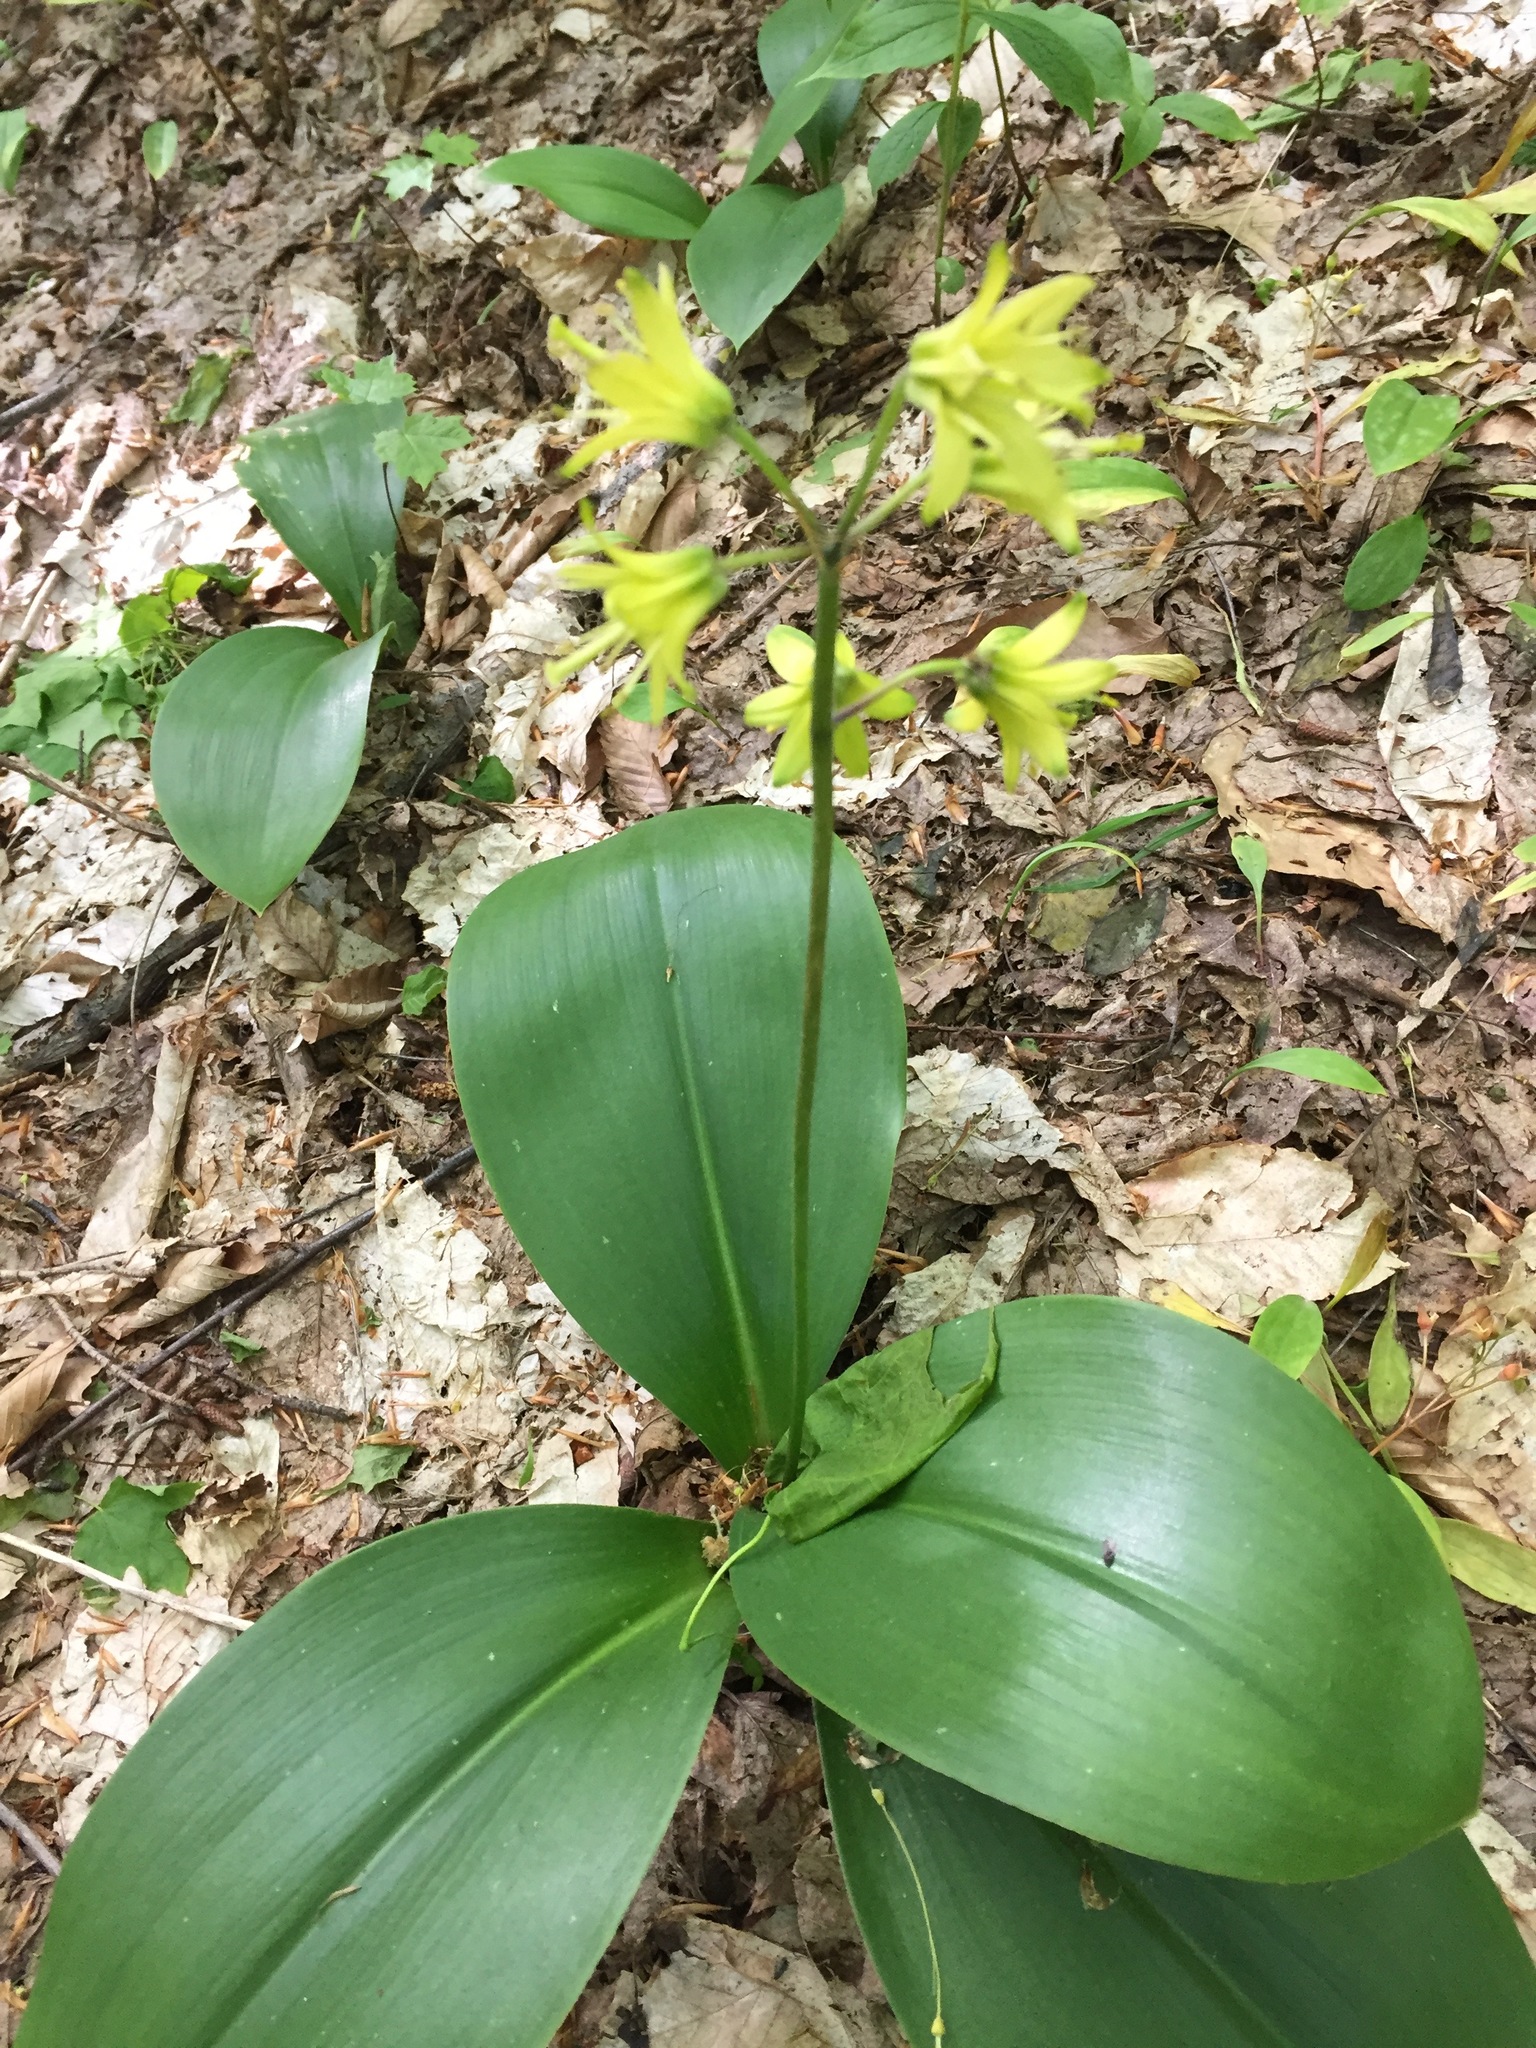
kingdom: Plantae
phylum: Tracheophyta
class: Liliopsida
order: Liliales
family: Liliaceae
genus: Clintonia
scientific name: Clintonia borealis
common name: Yellow clintonia
